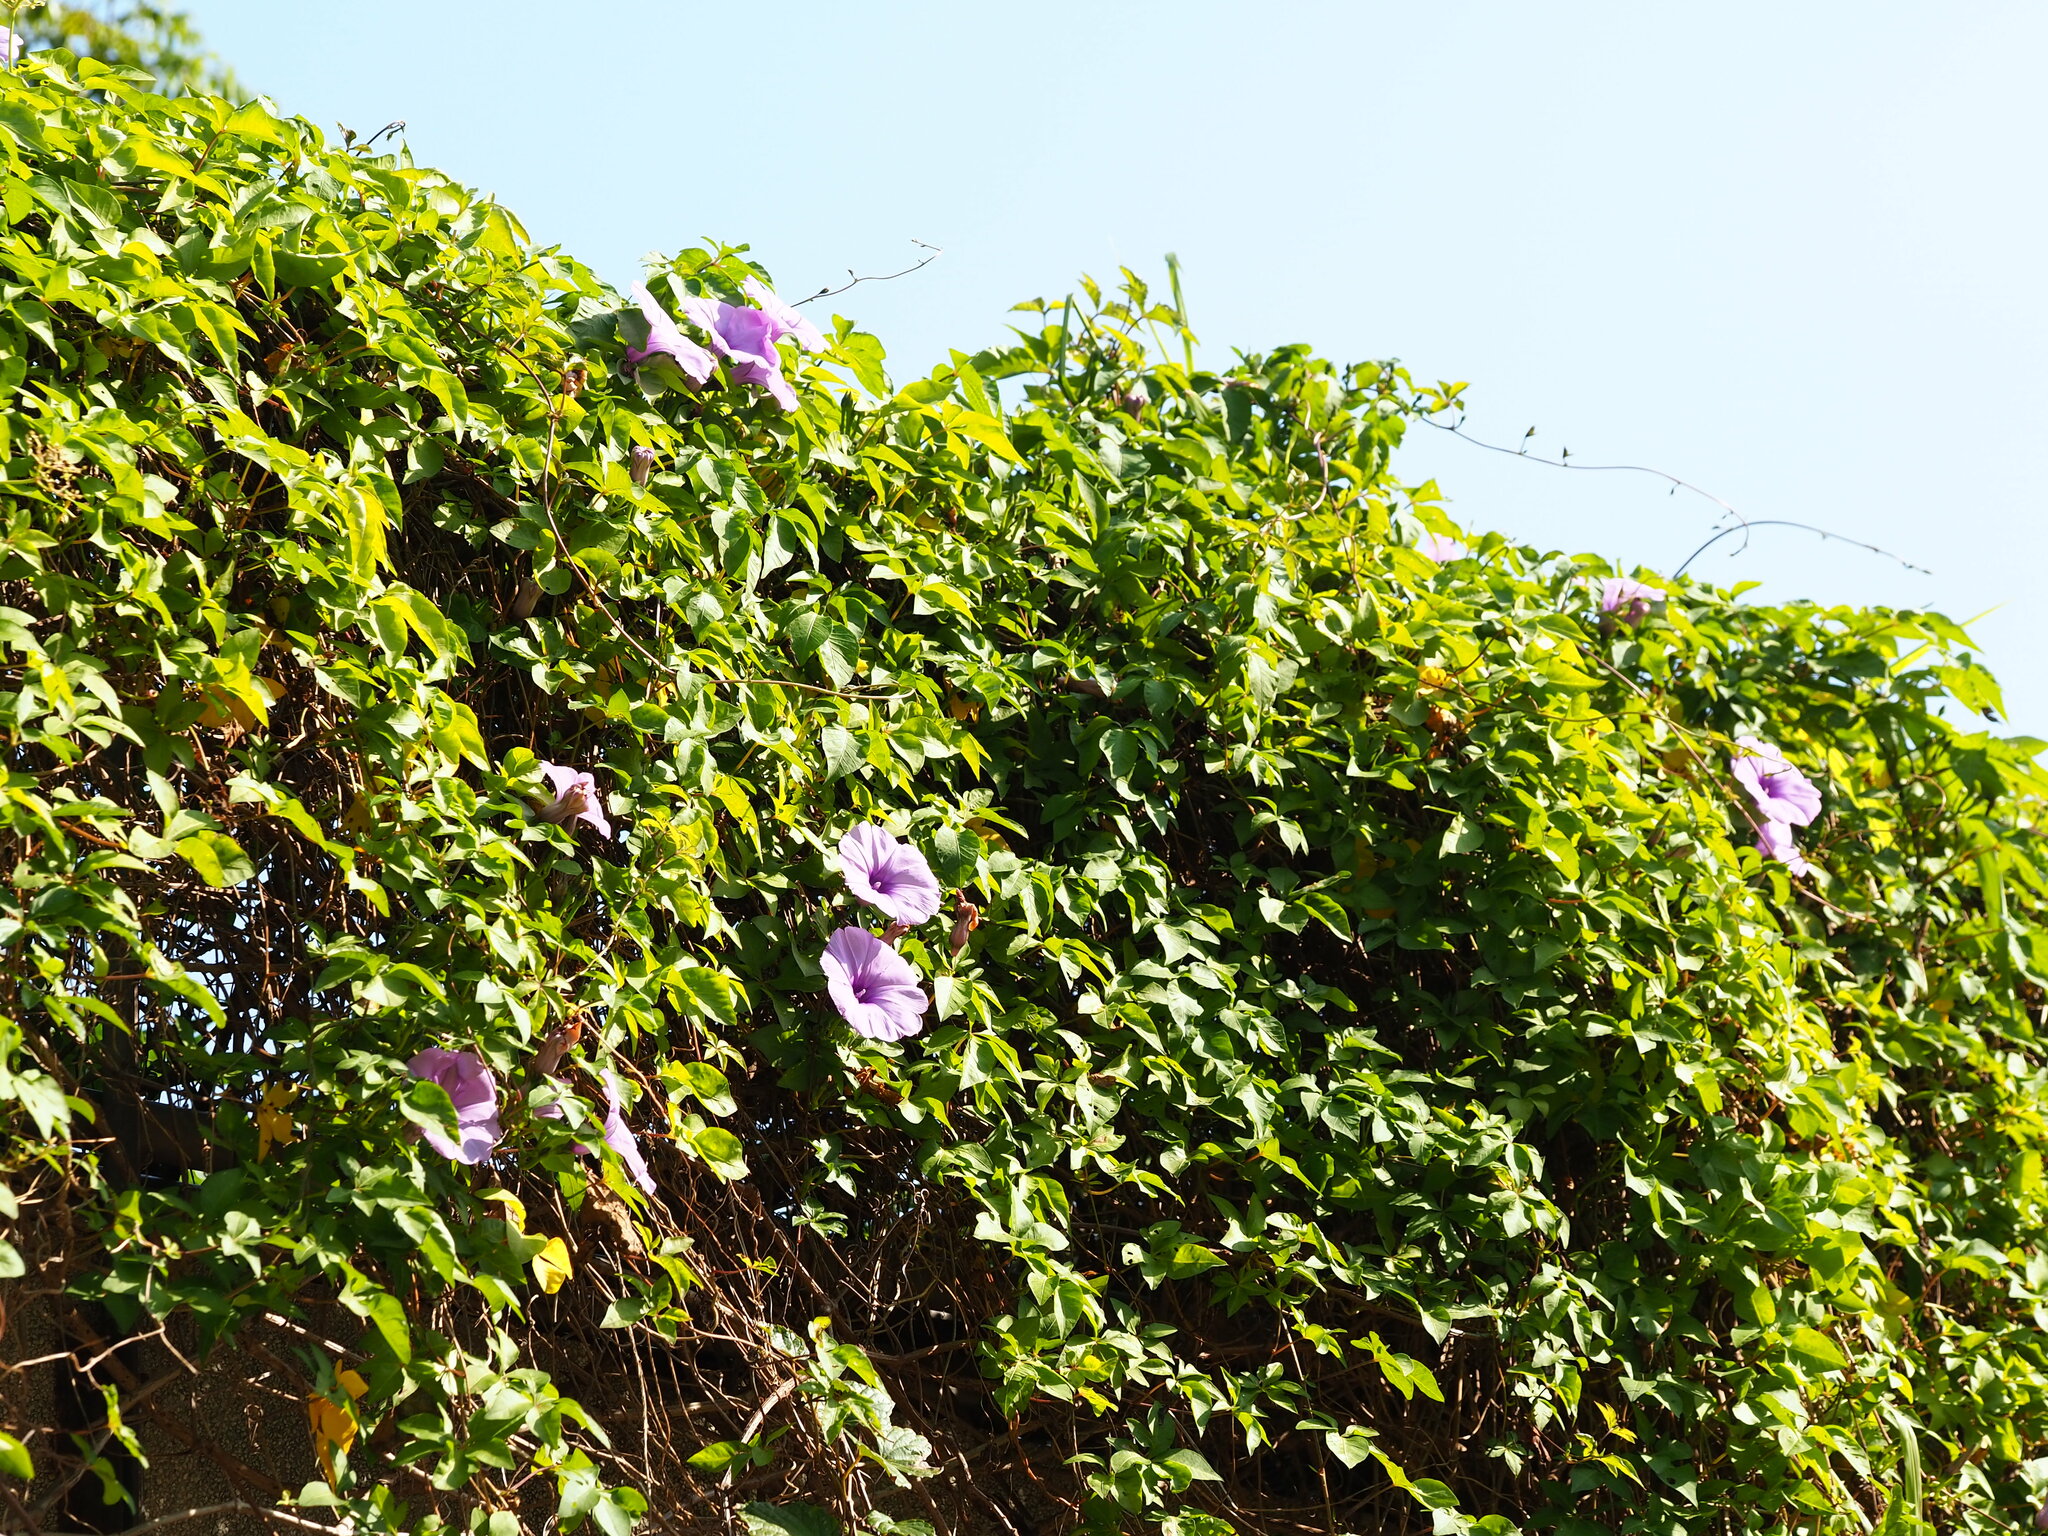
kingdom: Plantae
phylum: Tracheophyta
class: Magnoliopsida
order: Solanales
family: Convolvulaceae
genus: Ipomoea
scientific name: Ipomoea cairica
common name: Mile a minute vine
